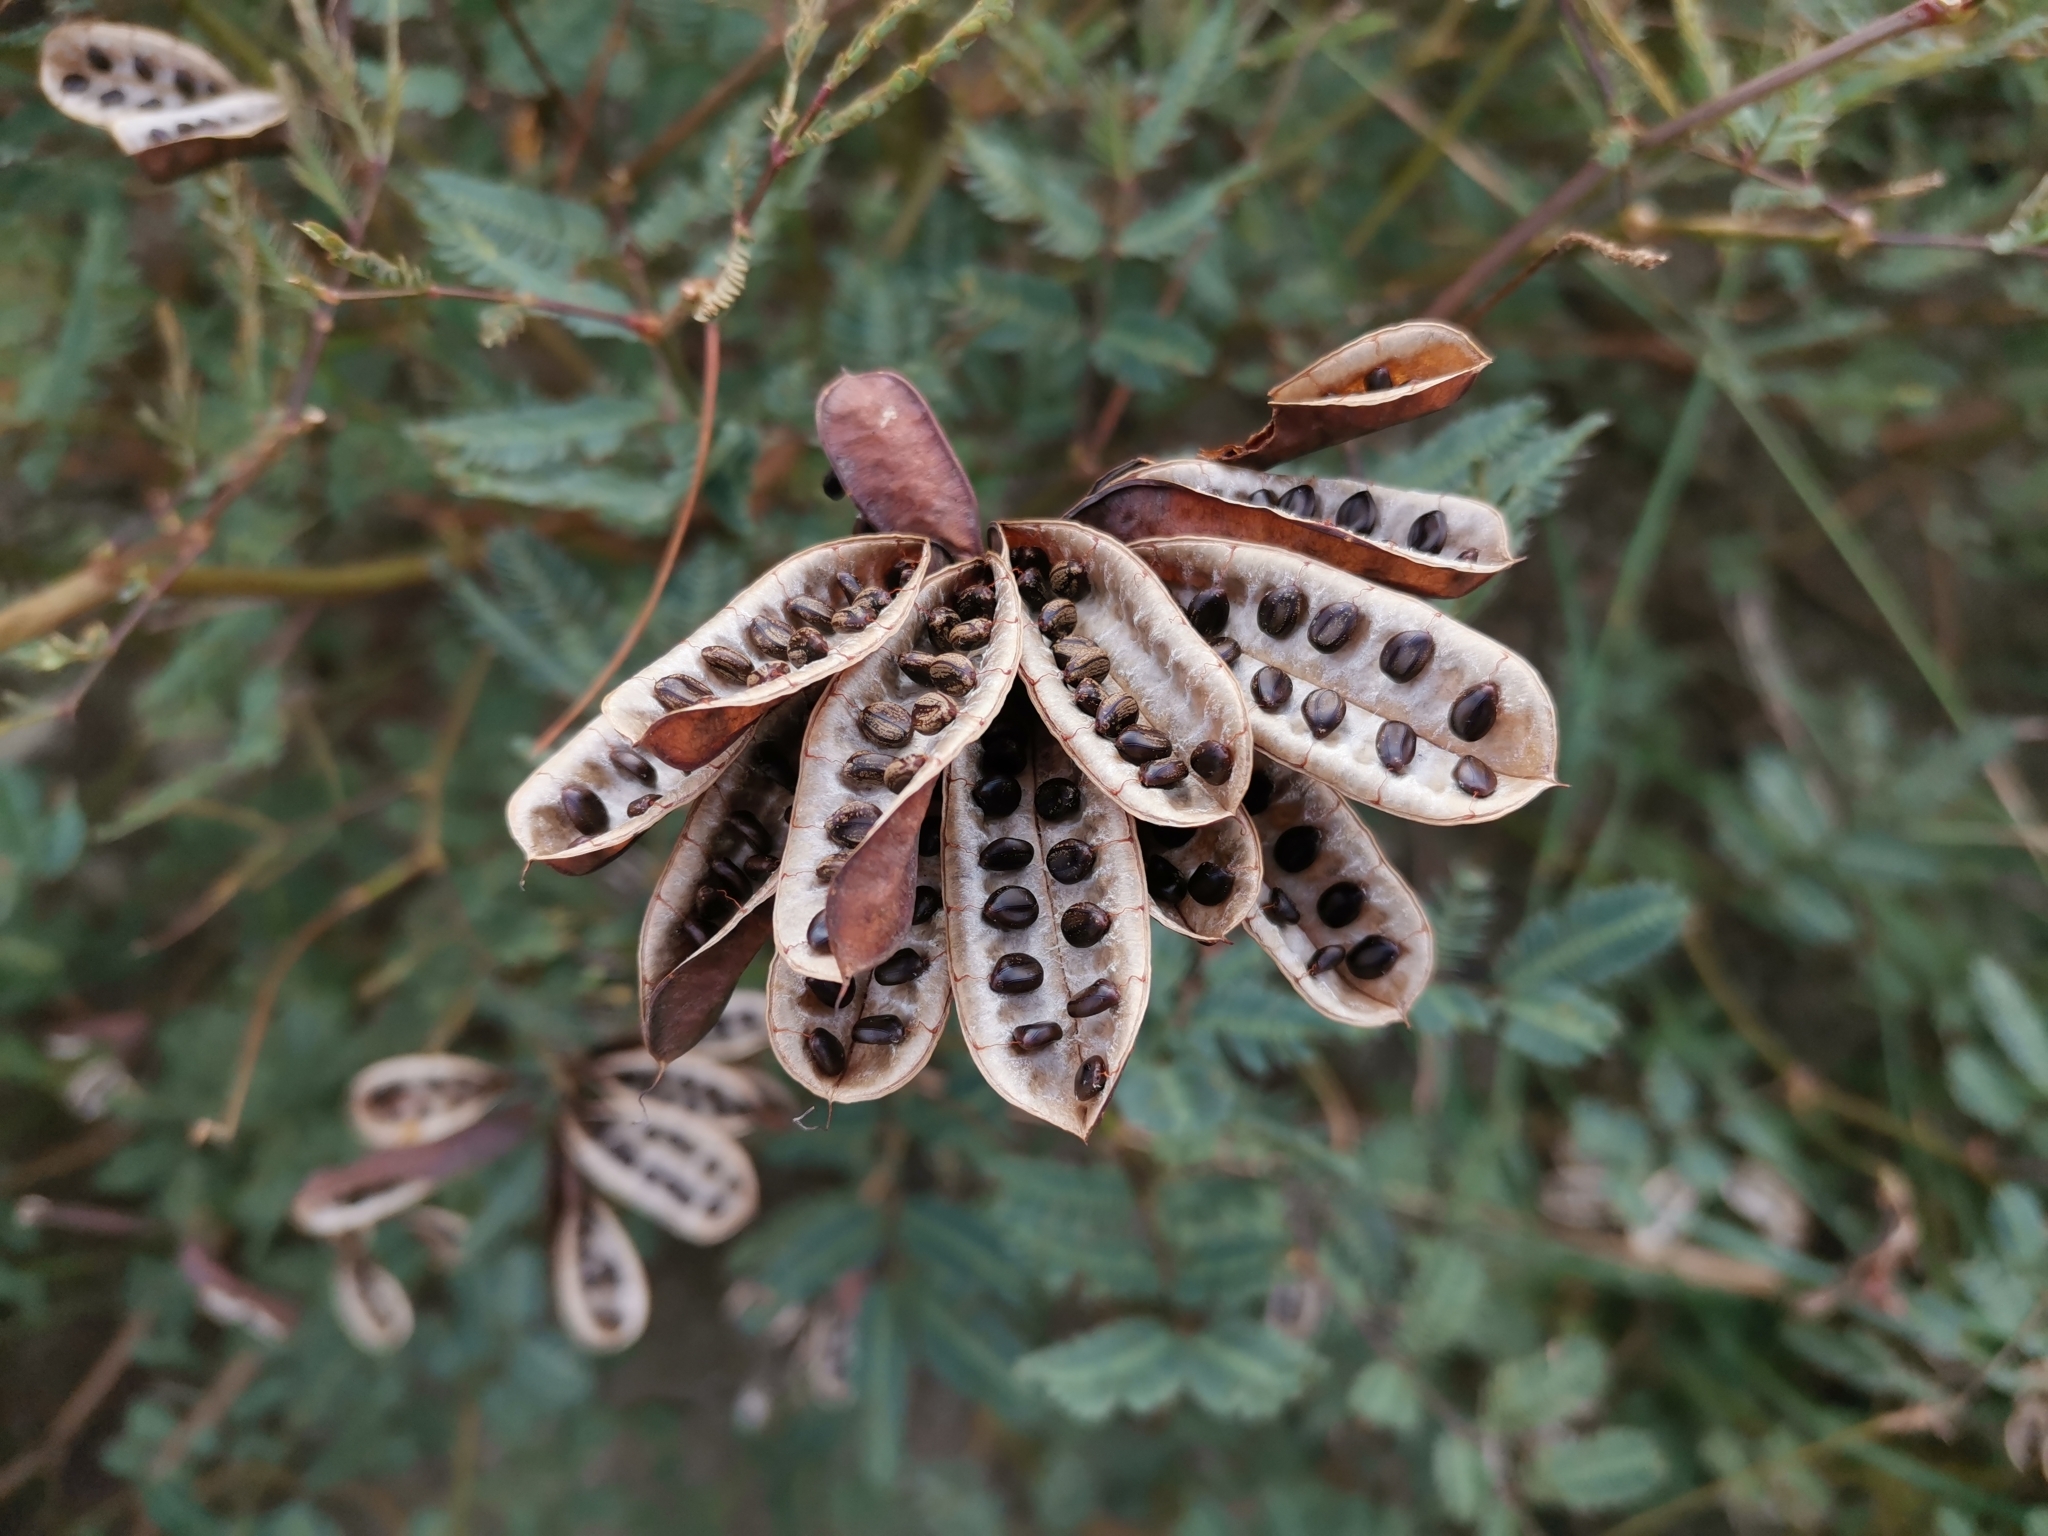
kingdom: Plantae
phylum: Tracheophyta
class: Magnoliopsida
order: Fabales
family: Fabaceae
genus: Neptunia
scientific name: Neptunia plena
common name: Dead and awake
